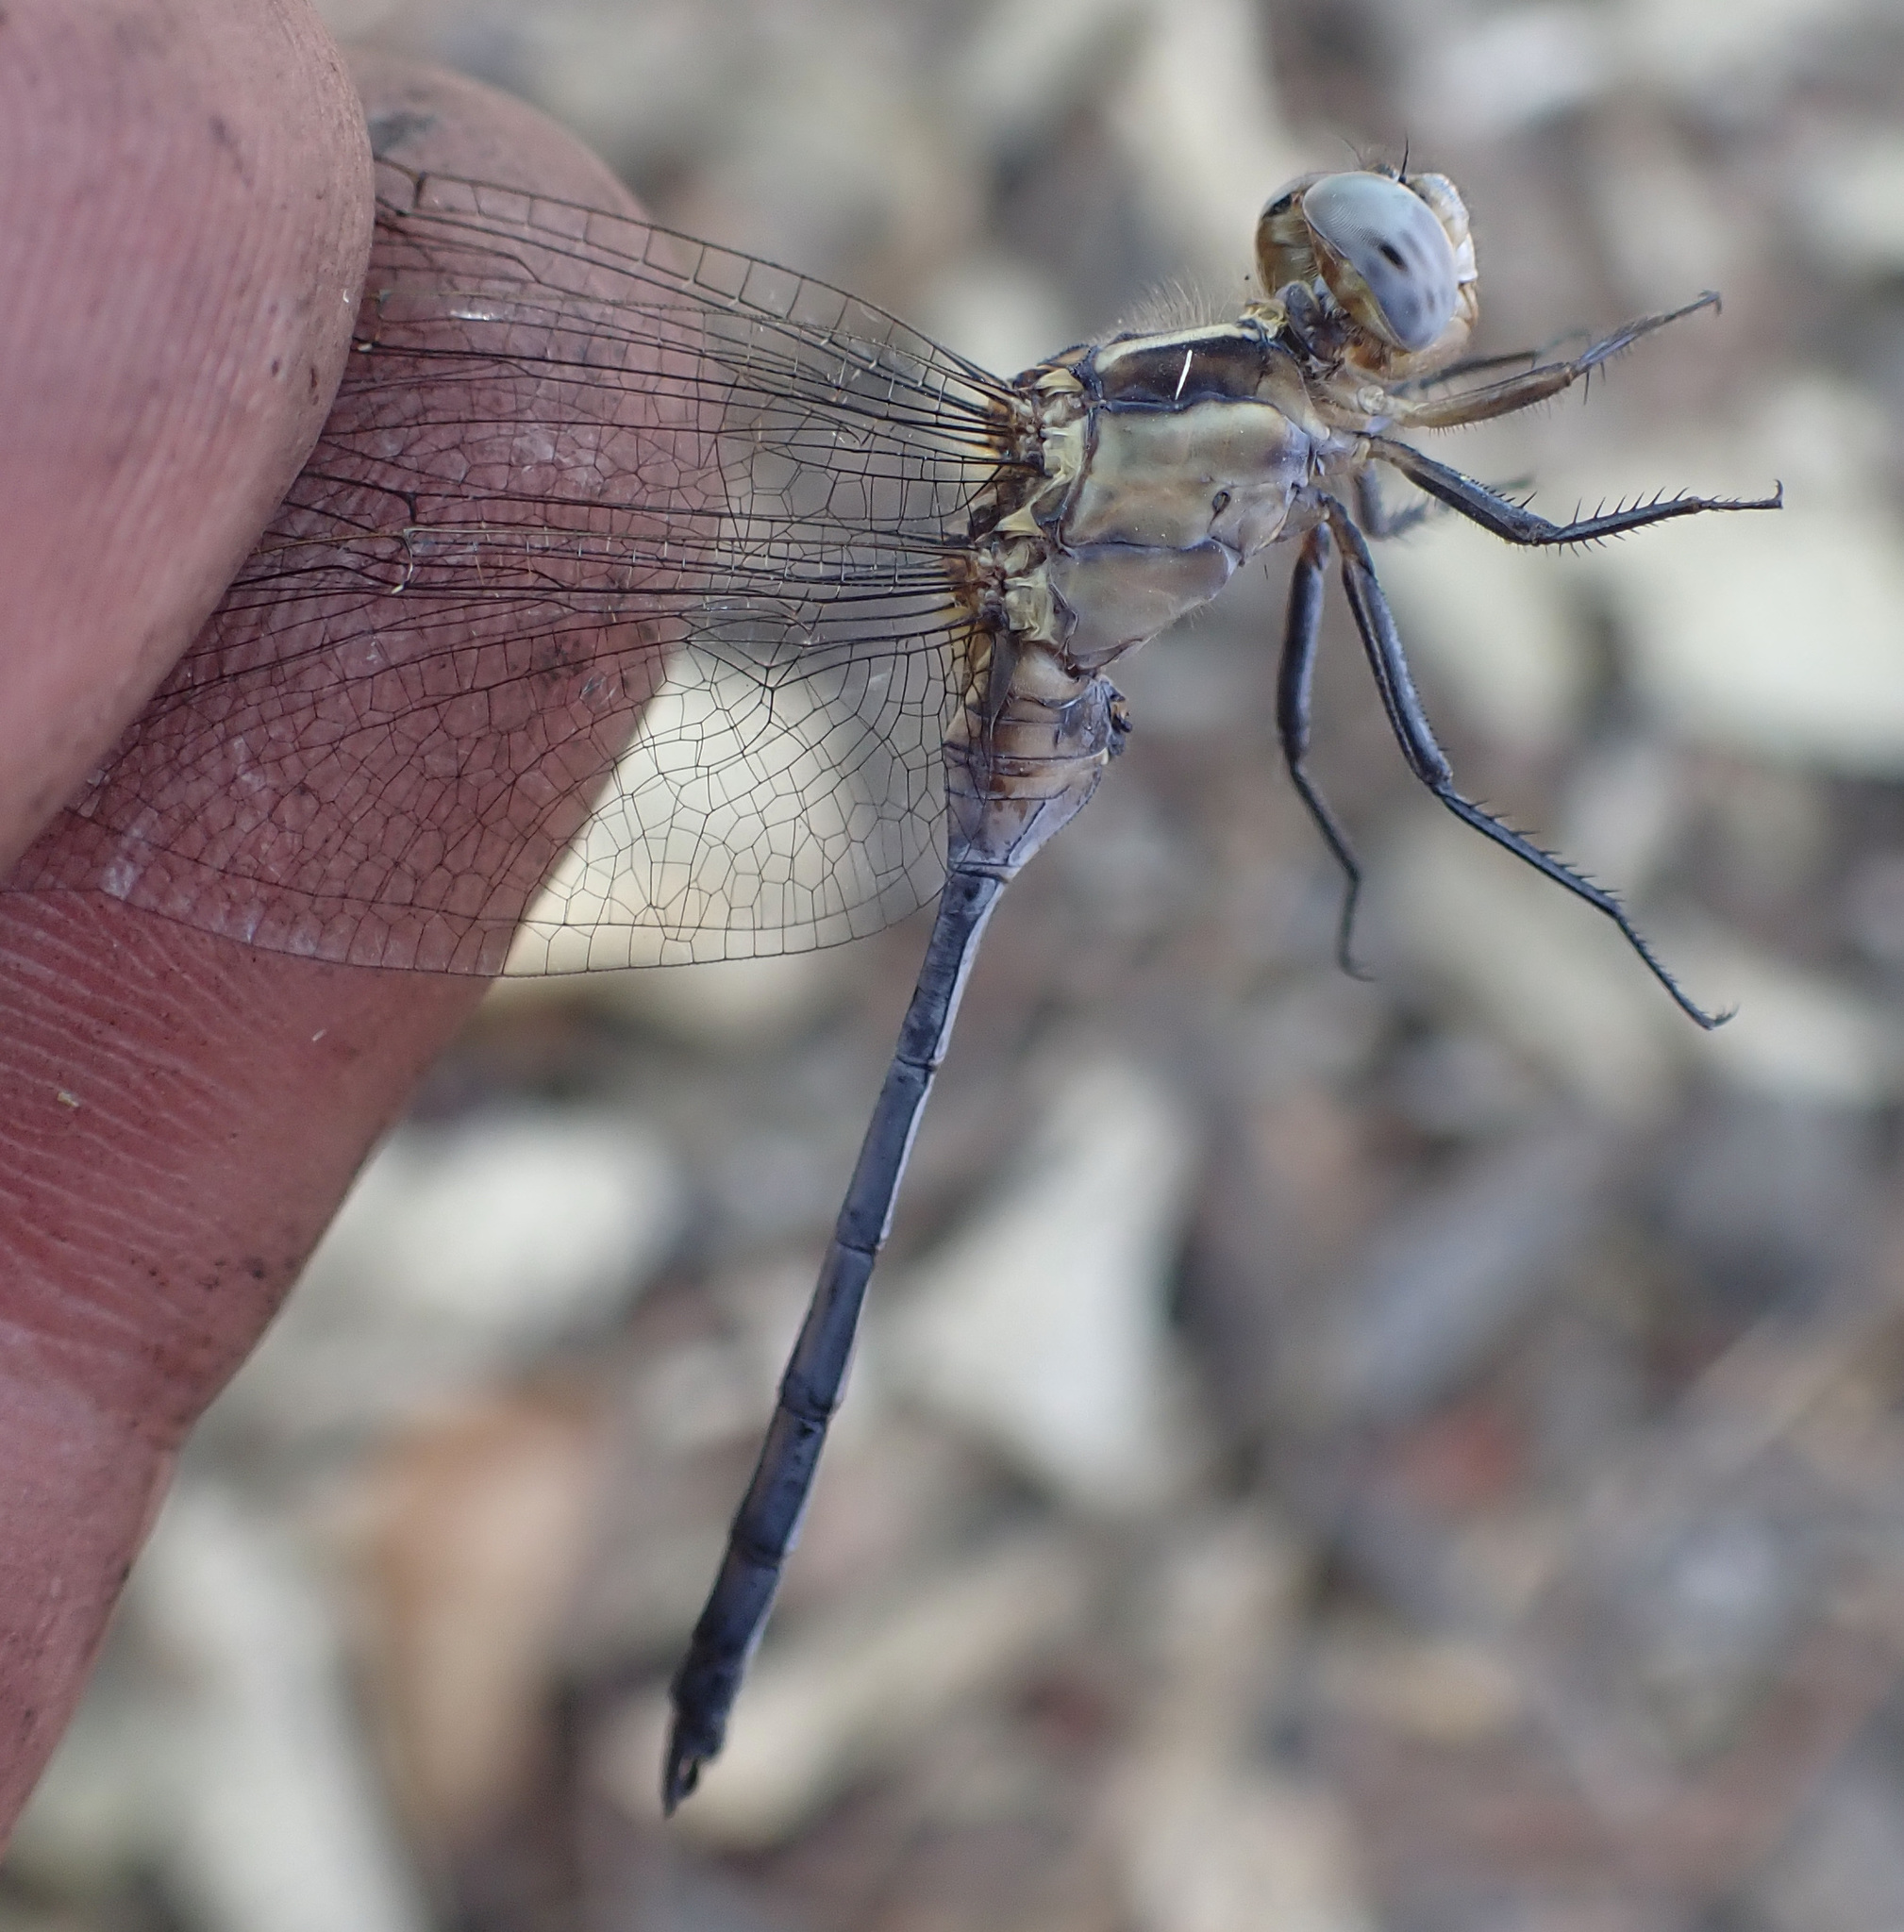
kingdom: Animalia
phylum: Arthropoda
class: Insecta
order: Odonata
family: Libellulidae
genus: Orthetrum
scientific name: Orthetrum machadoi
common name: Highland skimmer
